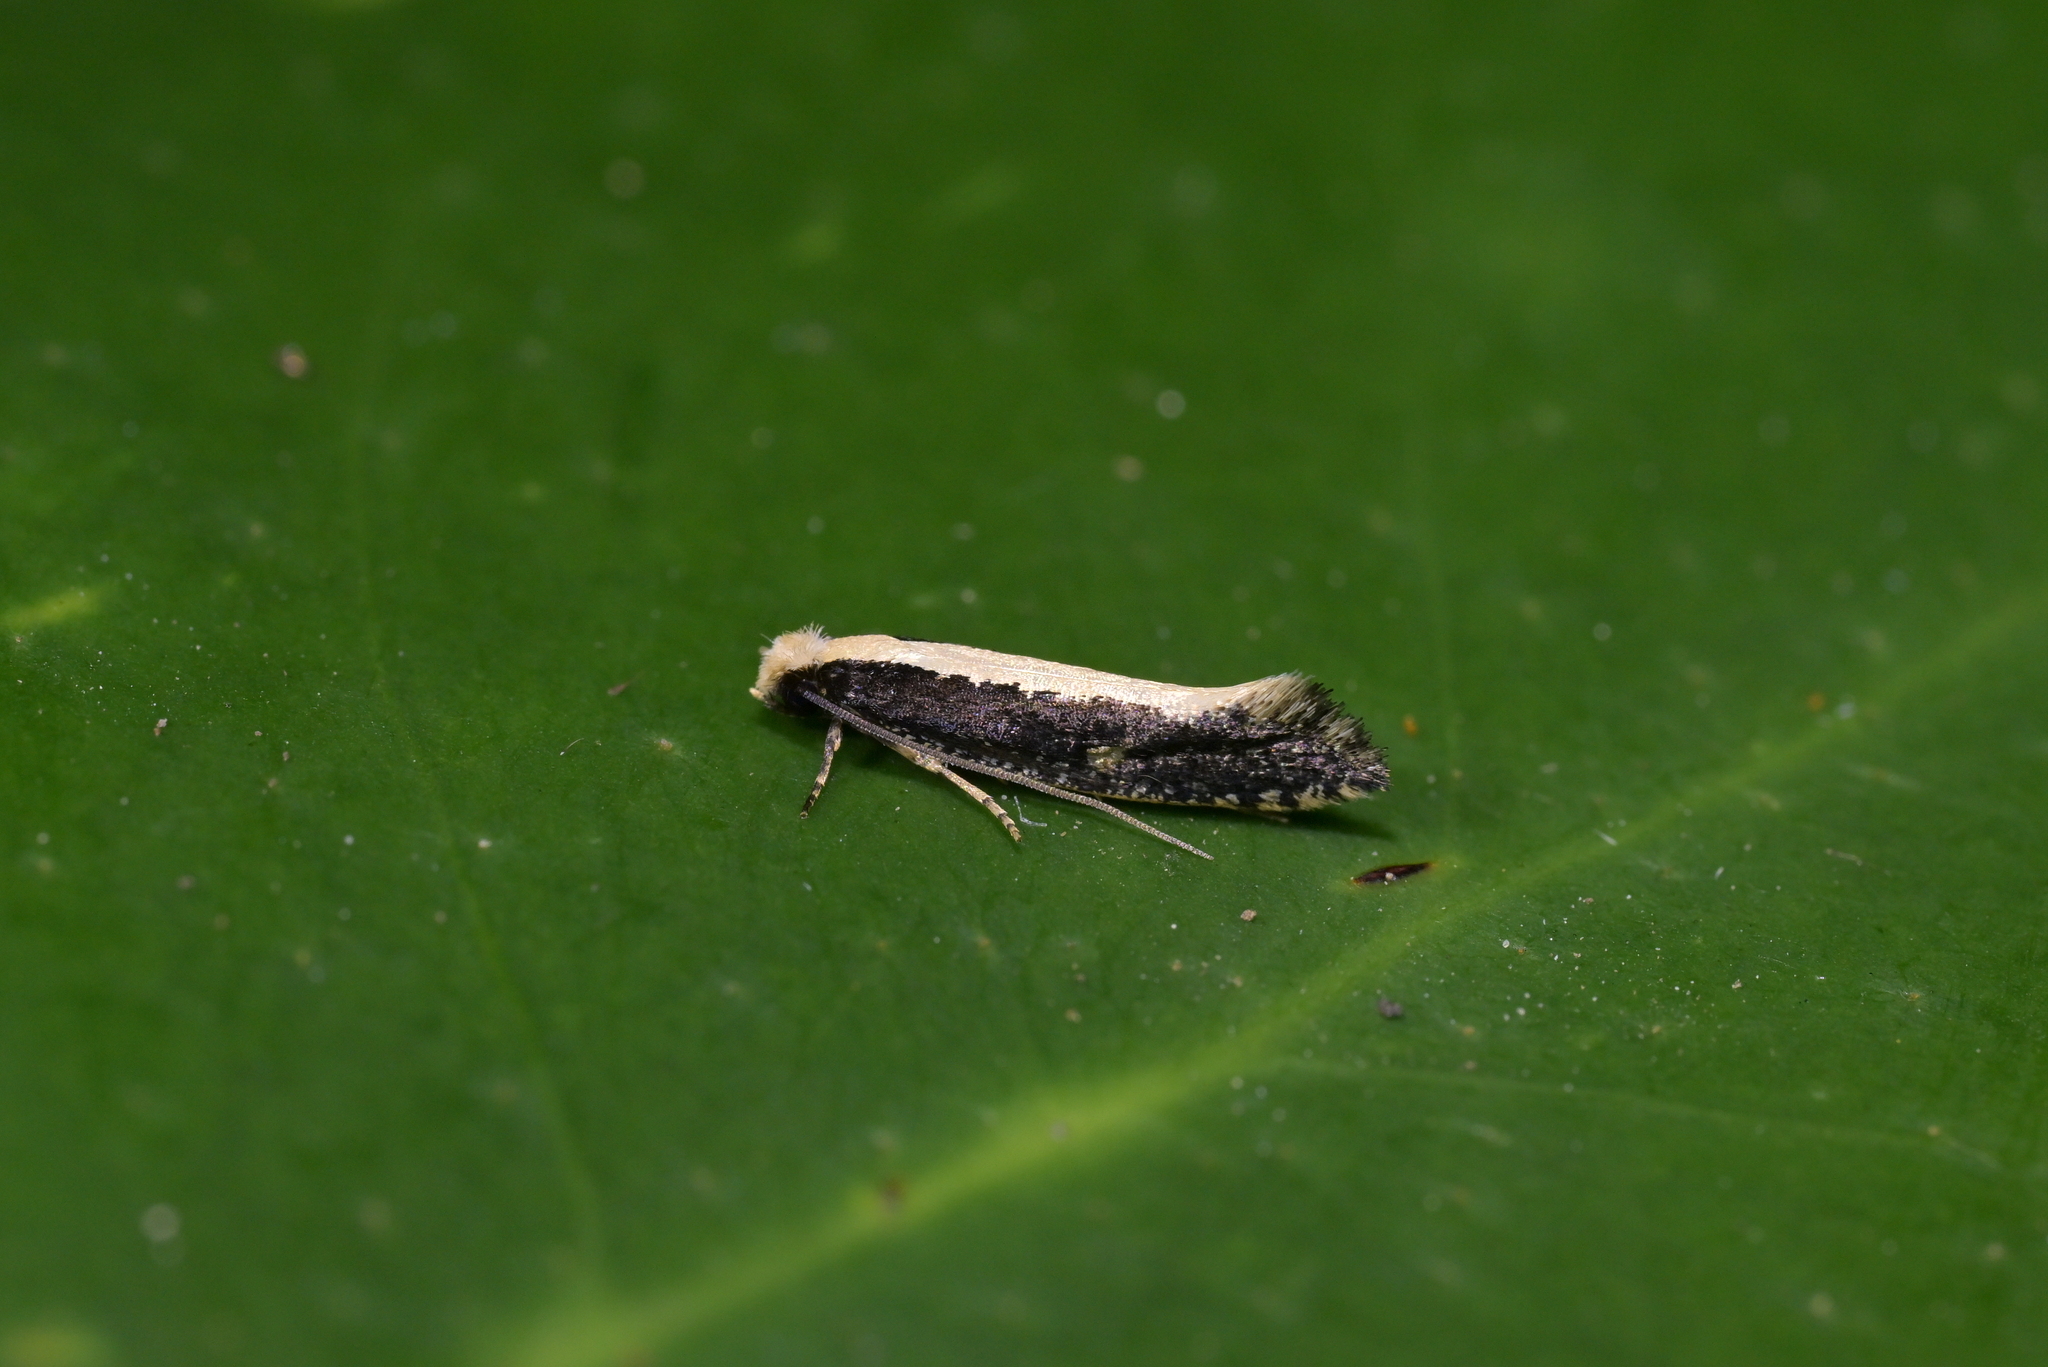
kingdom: Animalia
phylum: Arthropoda
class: Insecta
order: Lepidoptera
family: Tineidae
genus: Monopis
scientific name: Monopis ethelella
